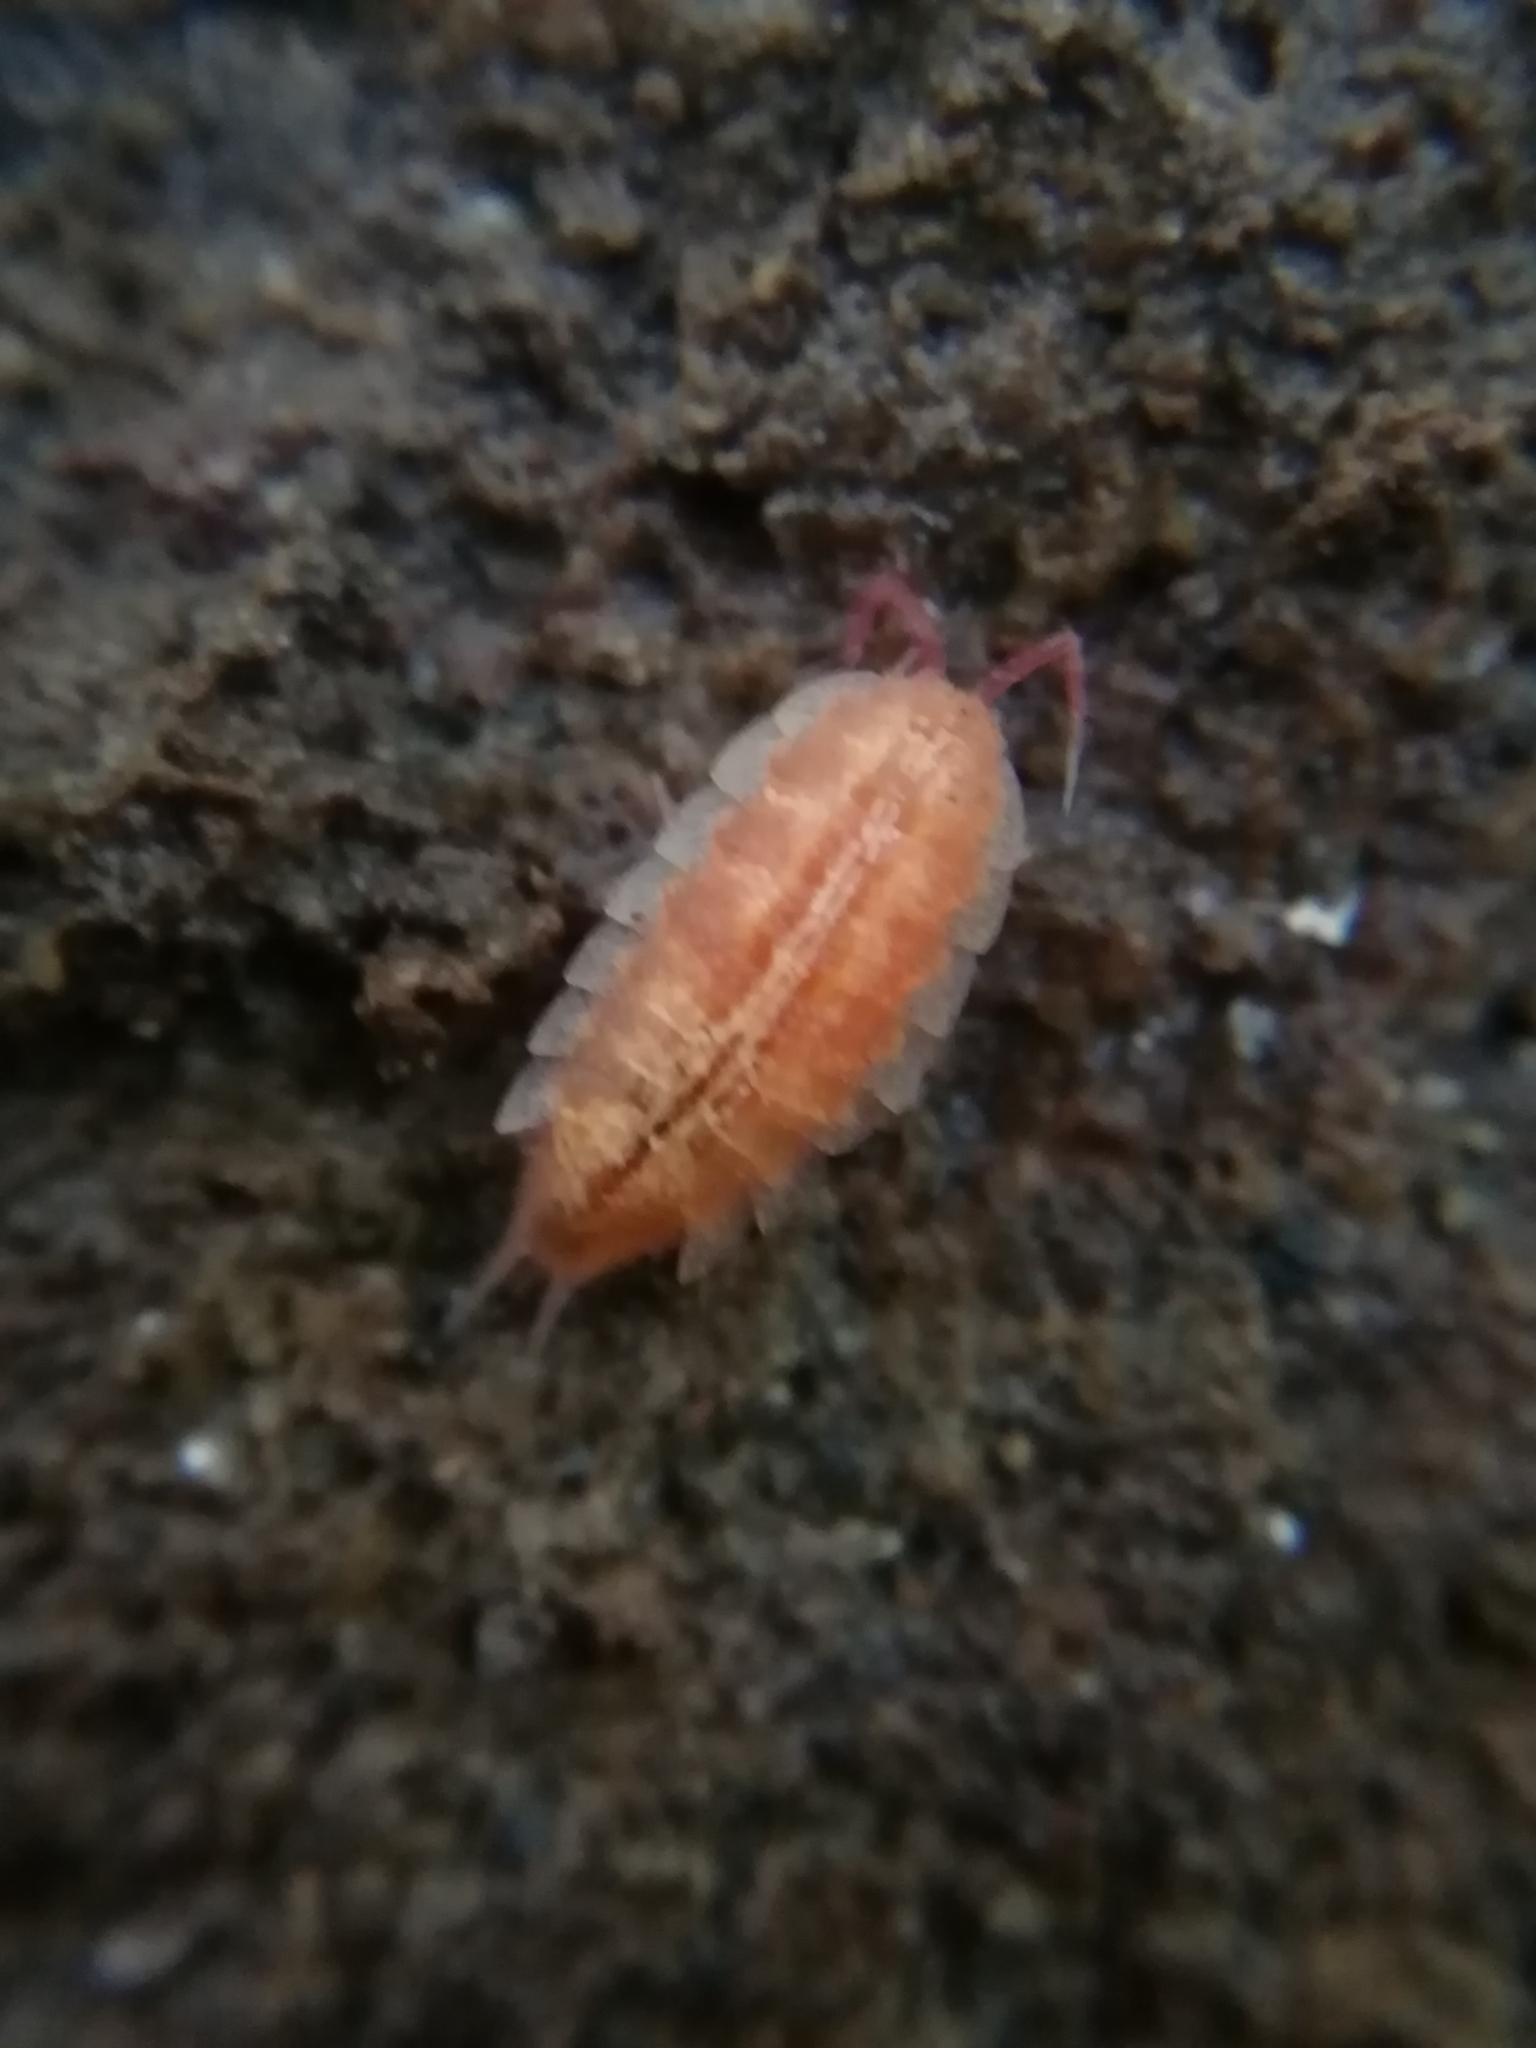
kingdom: Animalia
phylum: Arthropoda
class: Malacostraca
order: Isopoda
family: Trichoniscidae
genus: Androniscus
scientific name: Androniscus dentiger
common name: Rosy woodlouse
